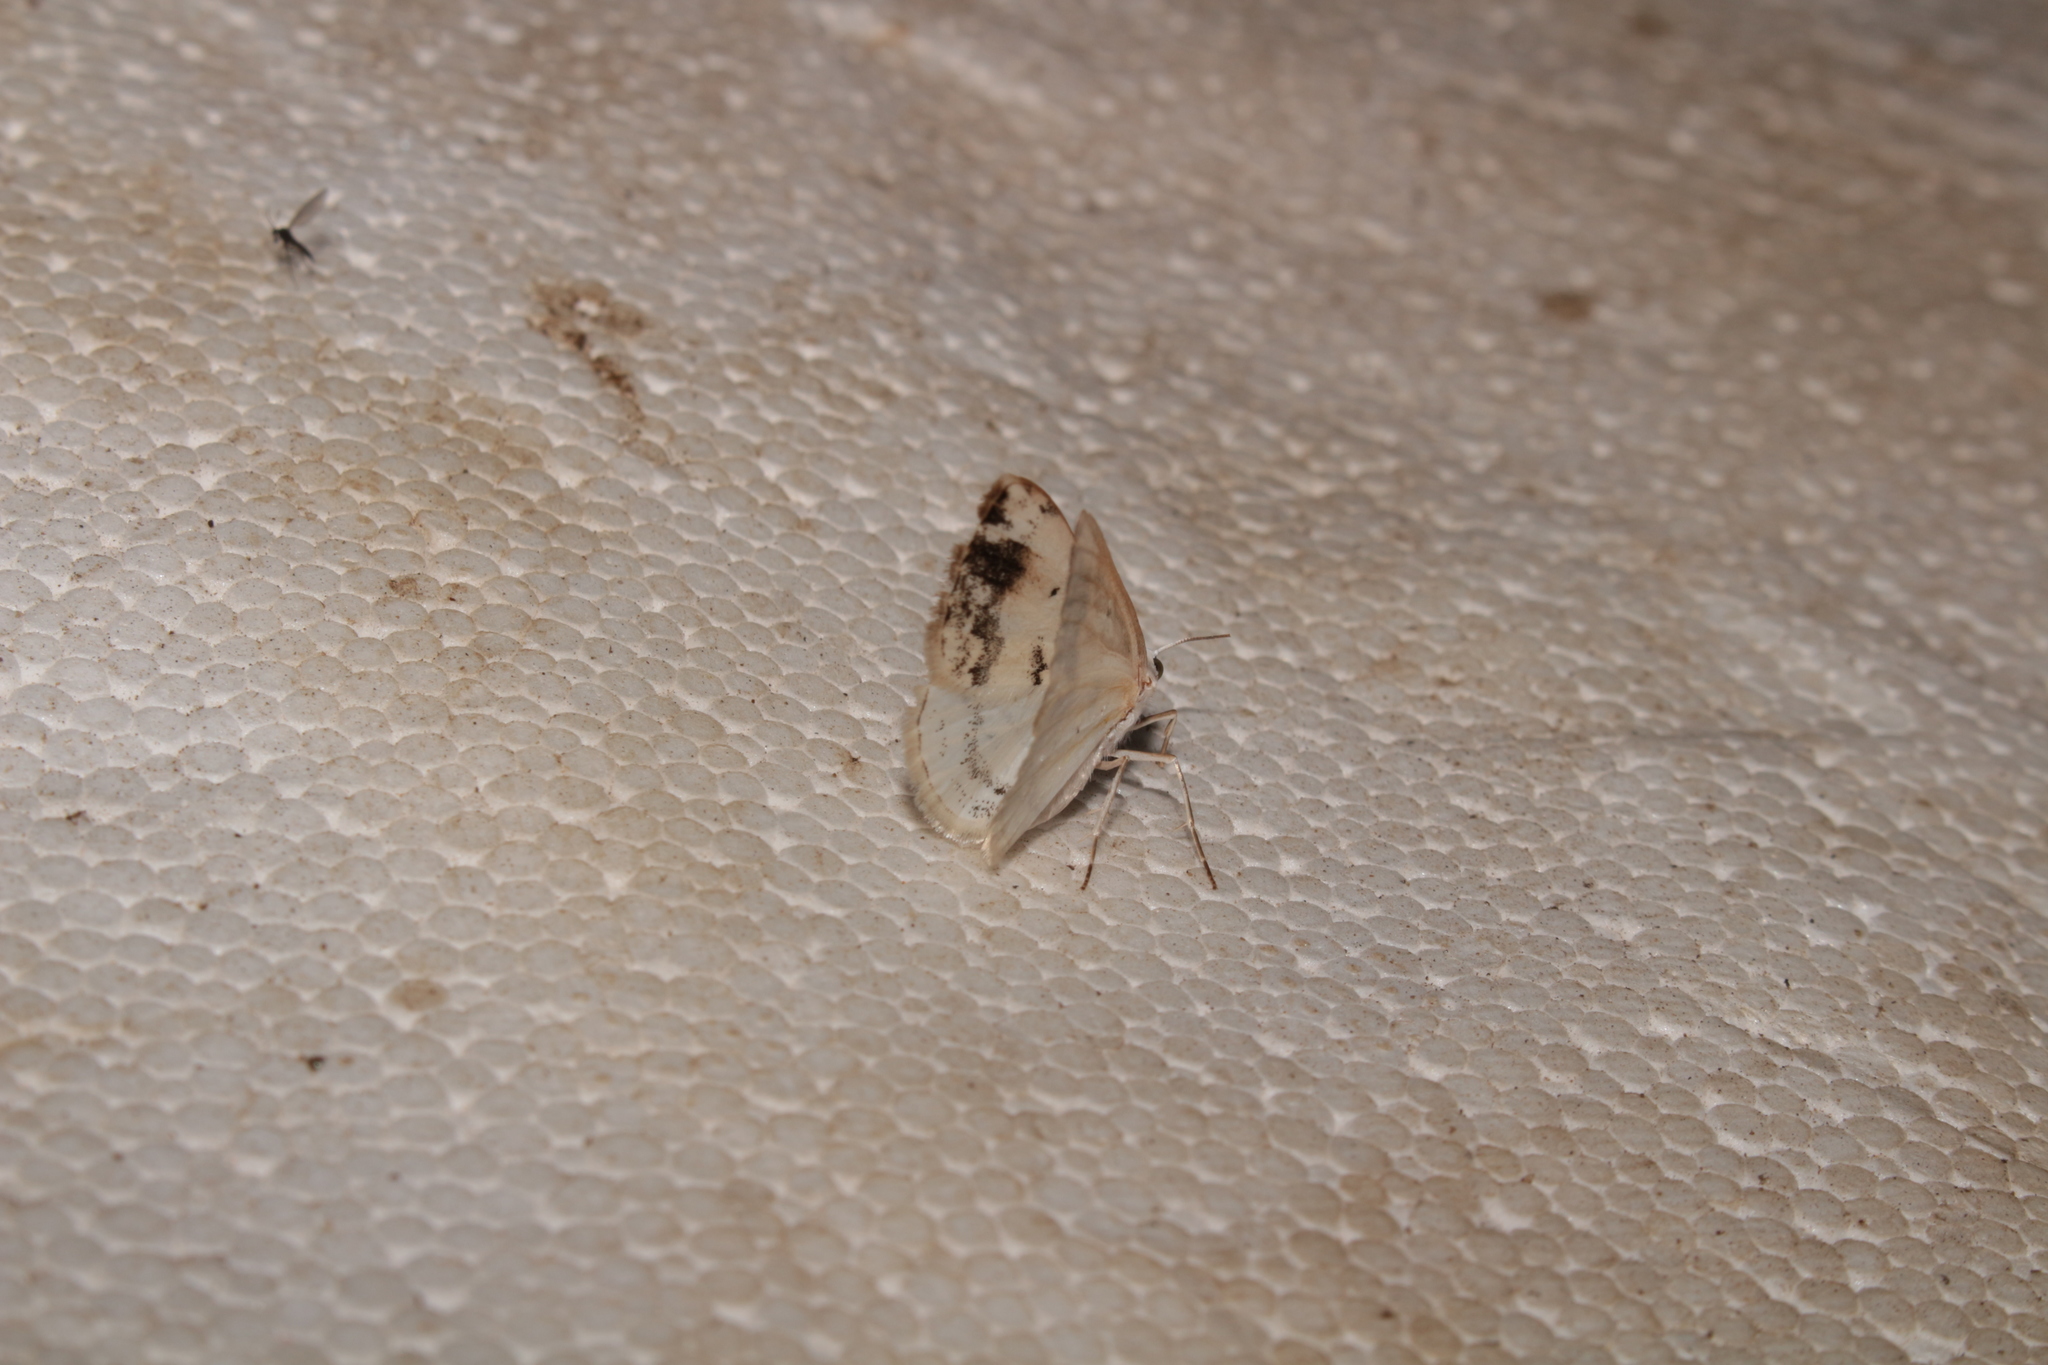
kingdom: Animalia
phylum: Arthropoda
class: Insecta
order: Lepidoptera
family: Geometridae
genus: Lomographa
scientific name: Lomographa temerata
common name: Clouded silver
